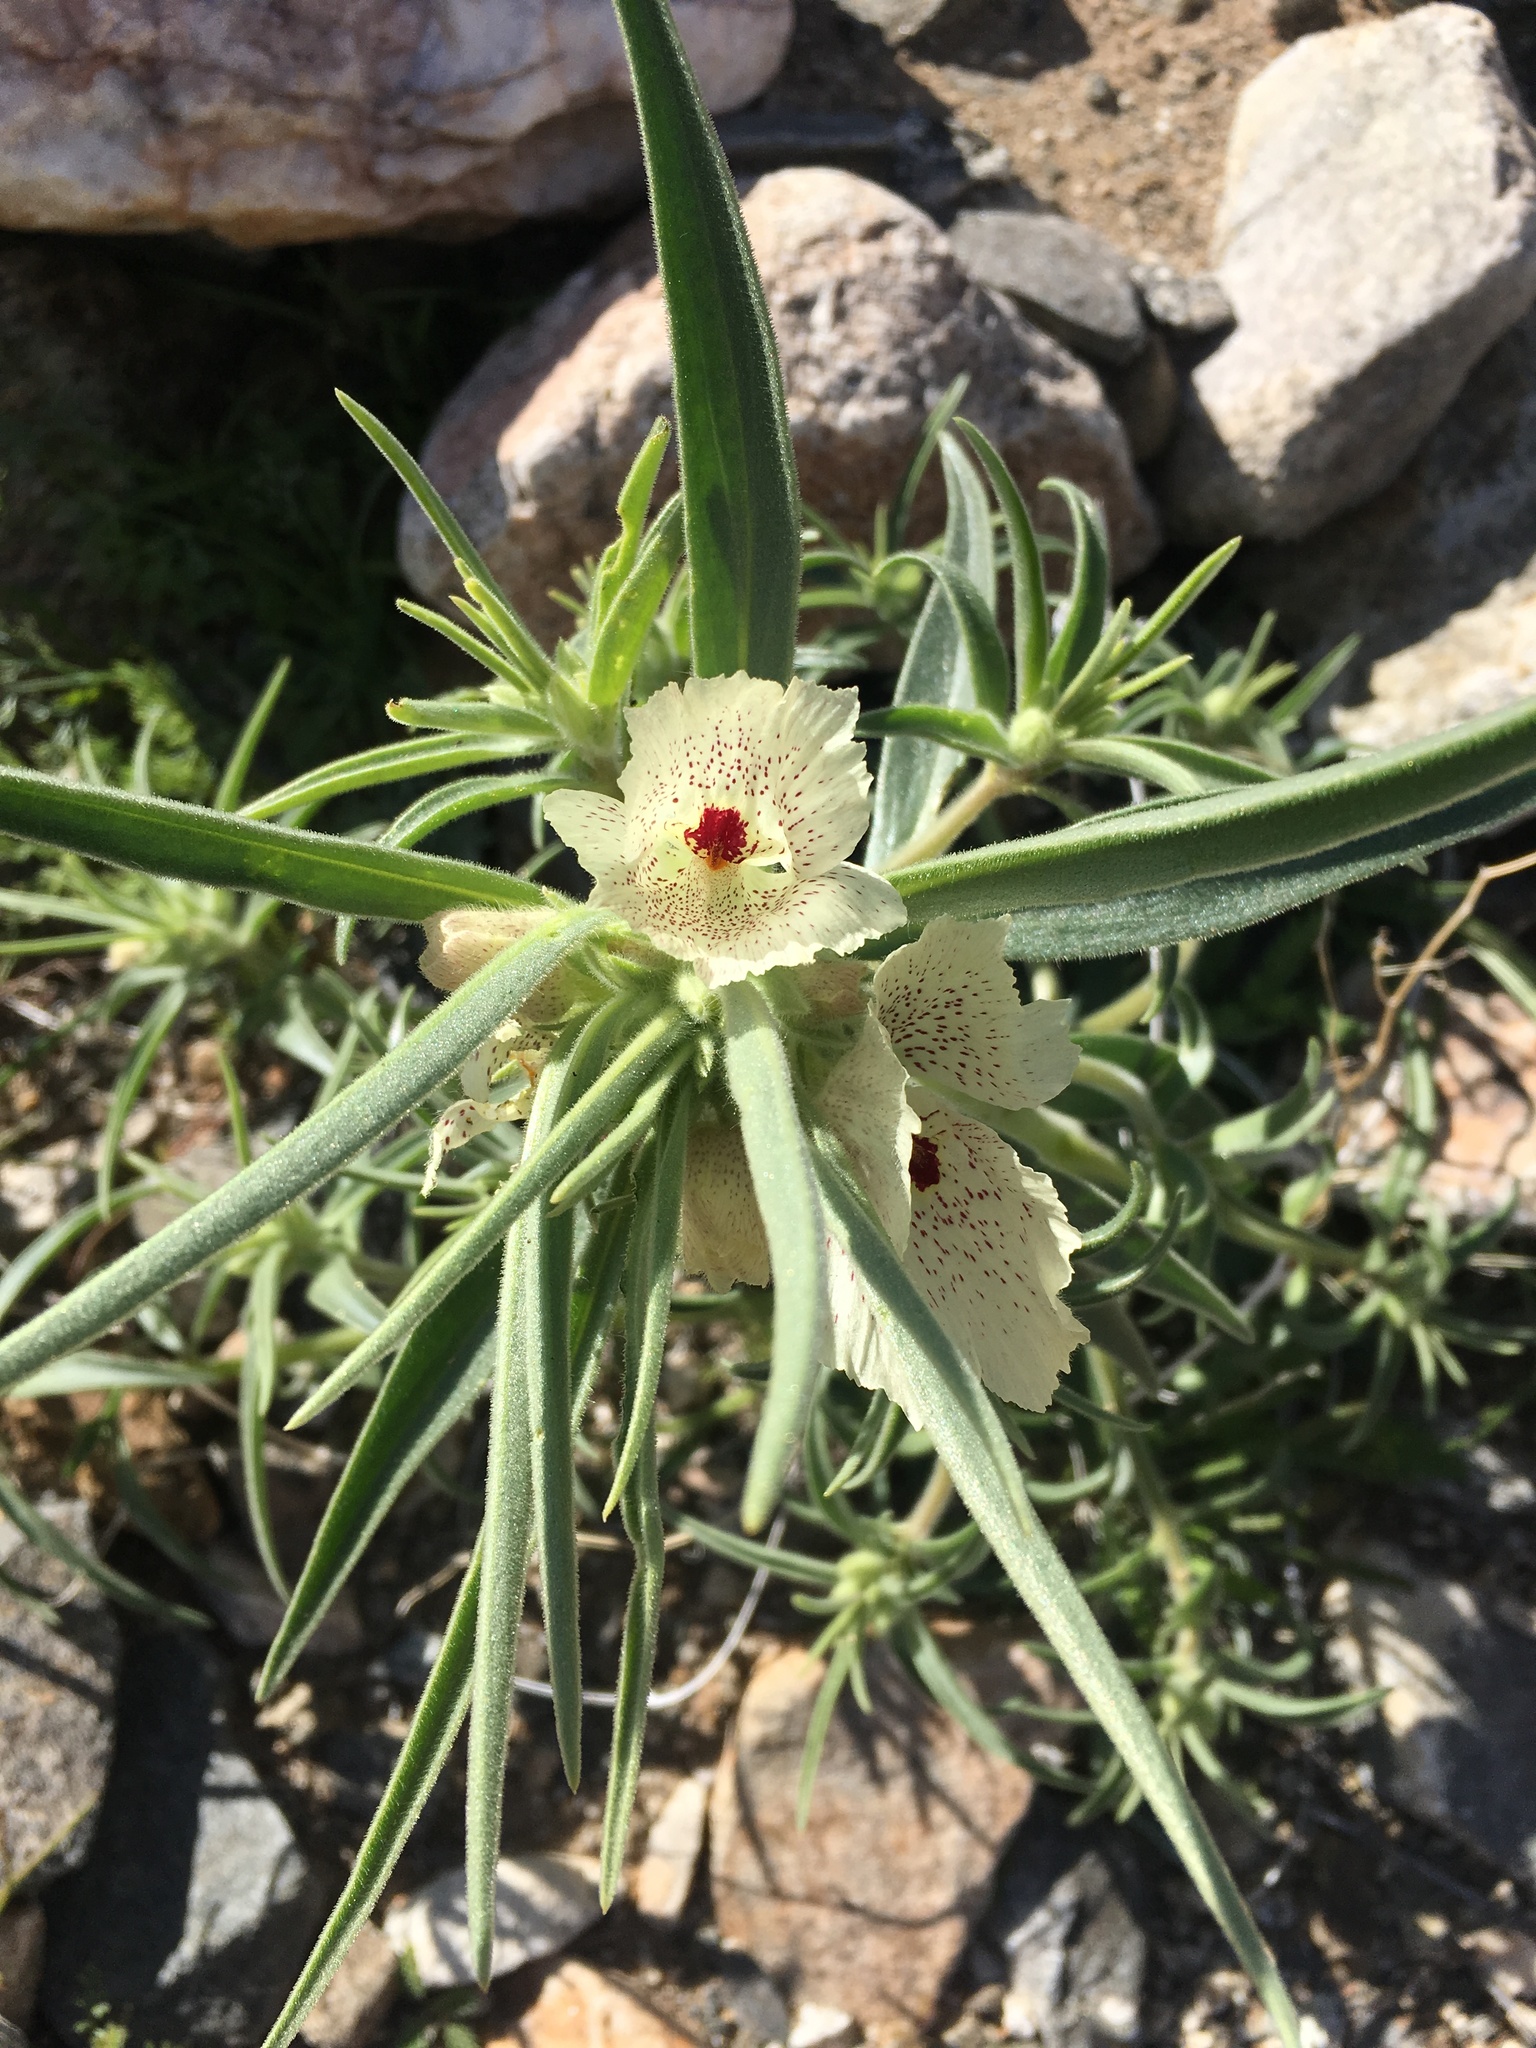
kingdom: Plantae
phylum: Tracheophyta
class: Magnoliopsida
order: Lamiales
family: Plantaginaceae
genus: Mohavea
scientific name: Mohavea confertiflora
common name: Ghost flower
